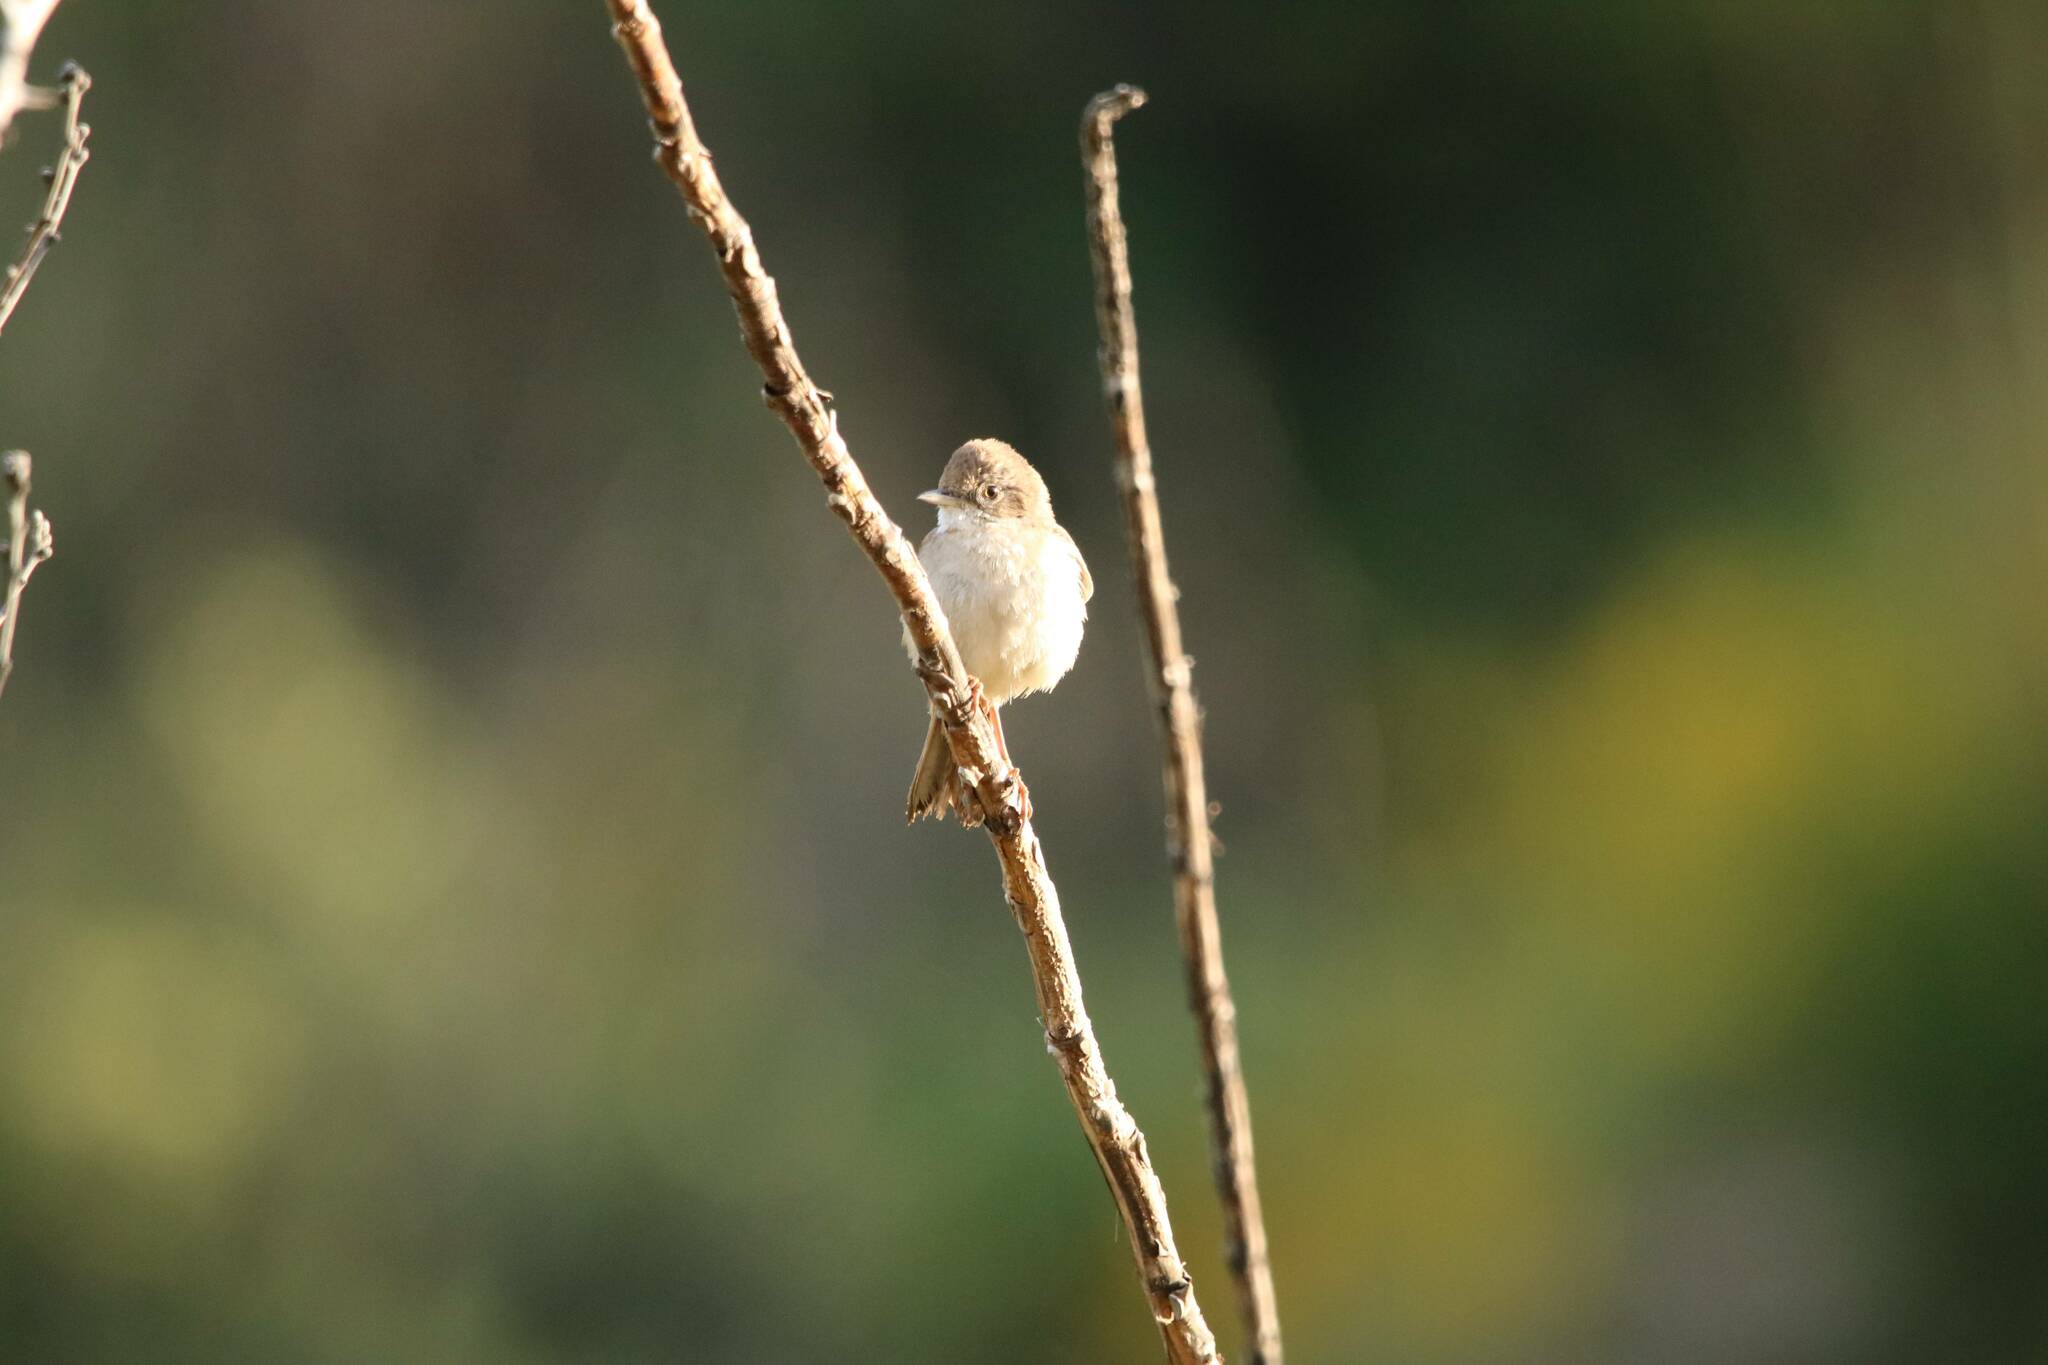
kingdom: Animalia
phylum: Chordata
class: Aves
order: Passeriformes
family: Sylviidae
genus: Sylvia
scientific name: Sylvia communis
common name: Common whitethroat
